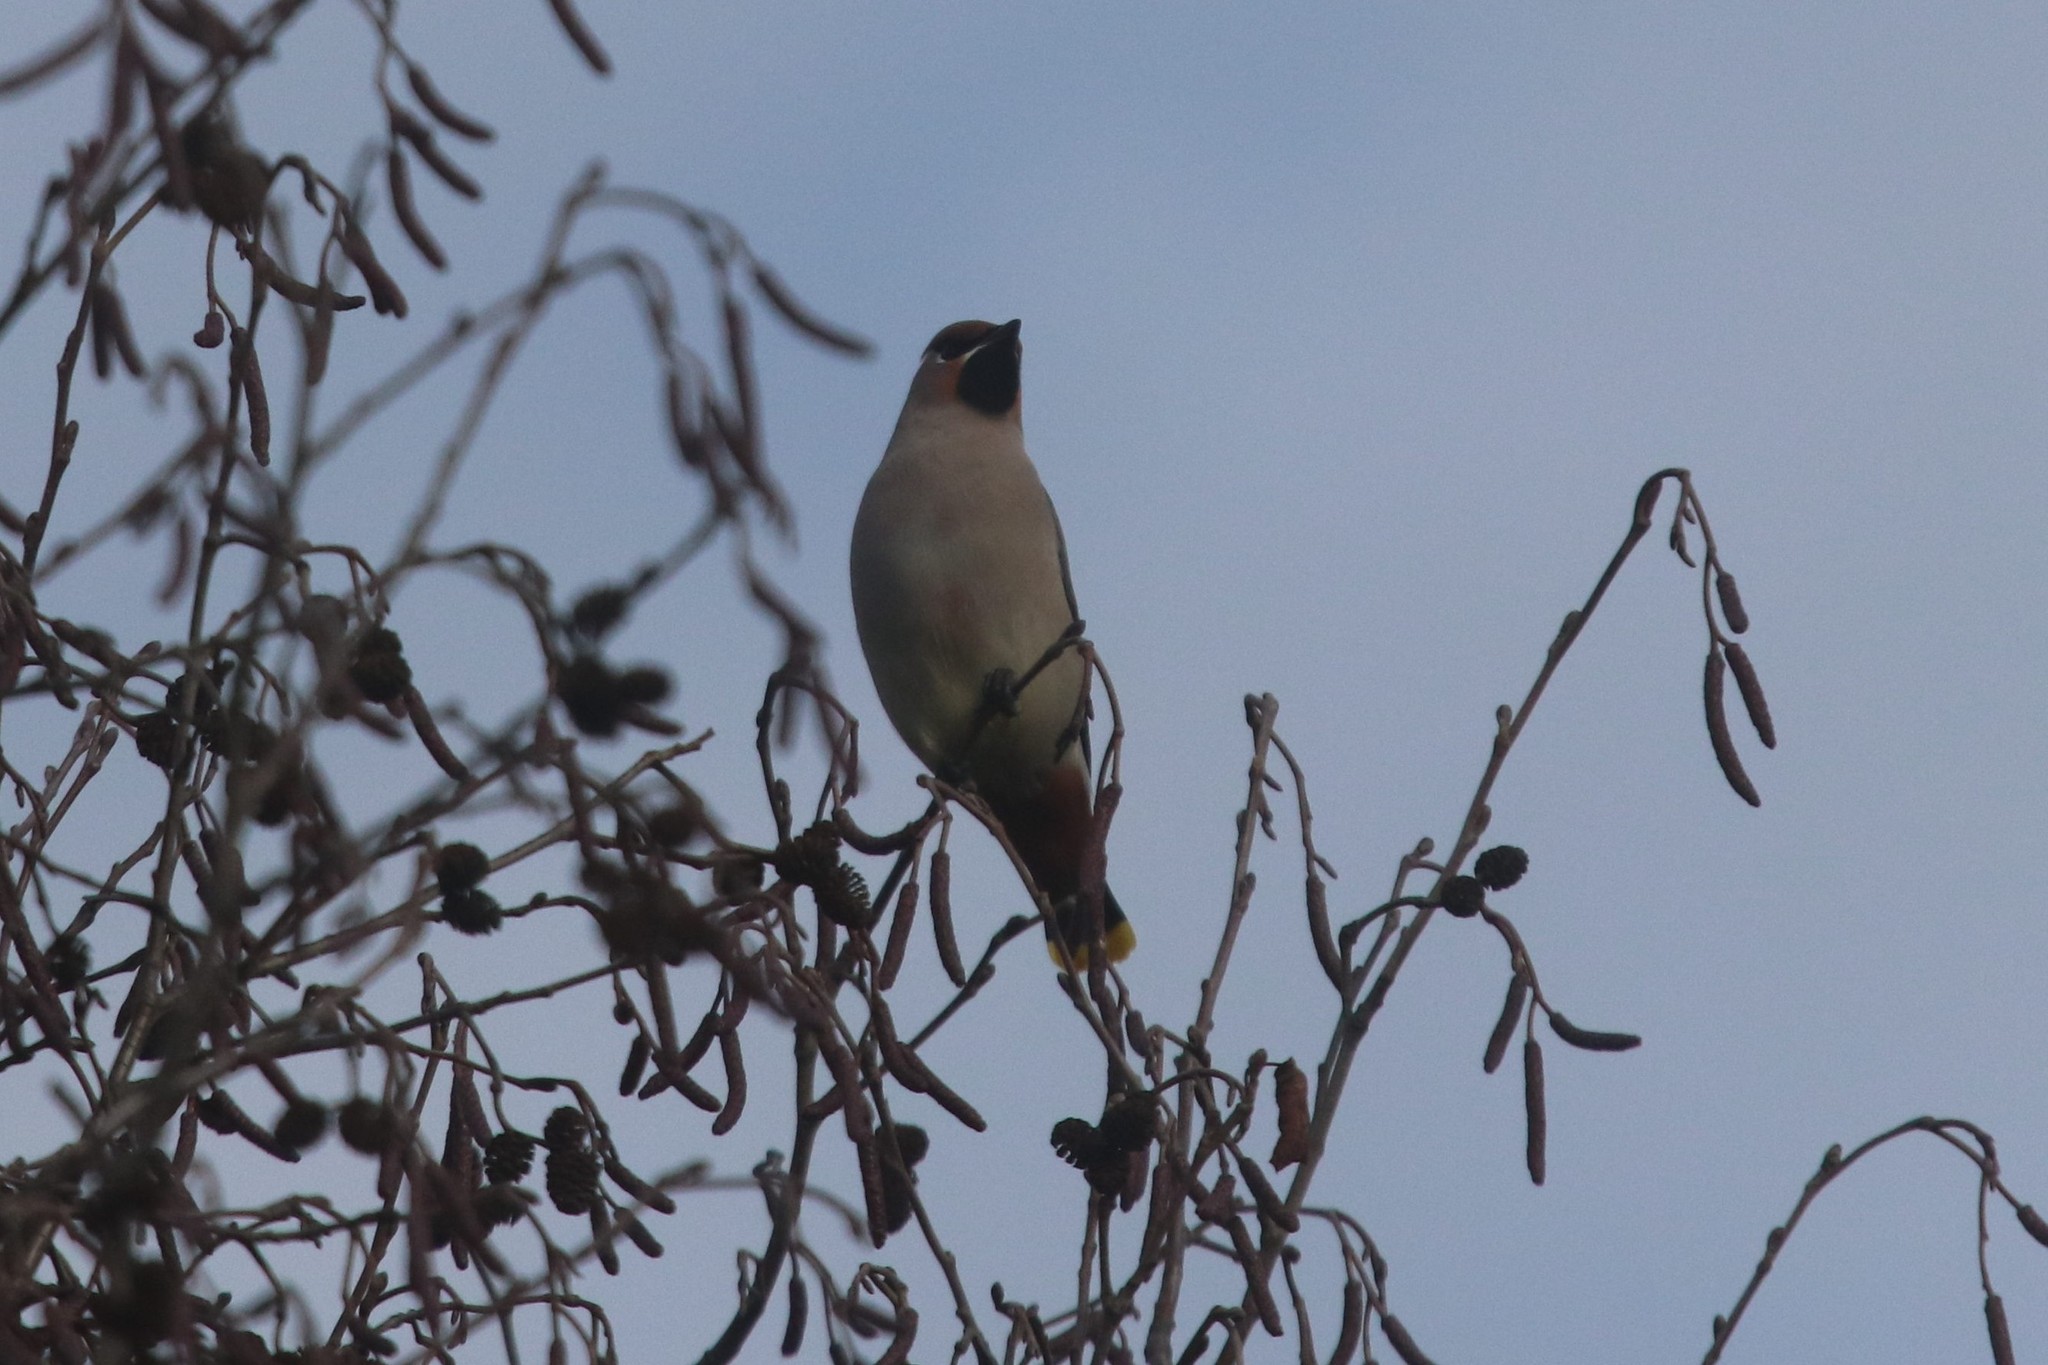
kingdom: Animalia
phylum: Chordata
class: Aves
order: Passeriformes
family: Bombycillidae
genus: Bombycilla
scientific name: Bombycilla garrulus
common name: Bohemian waxwing
